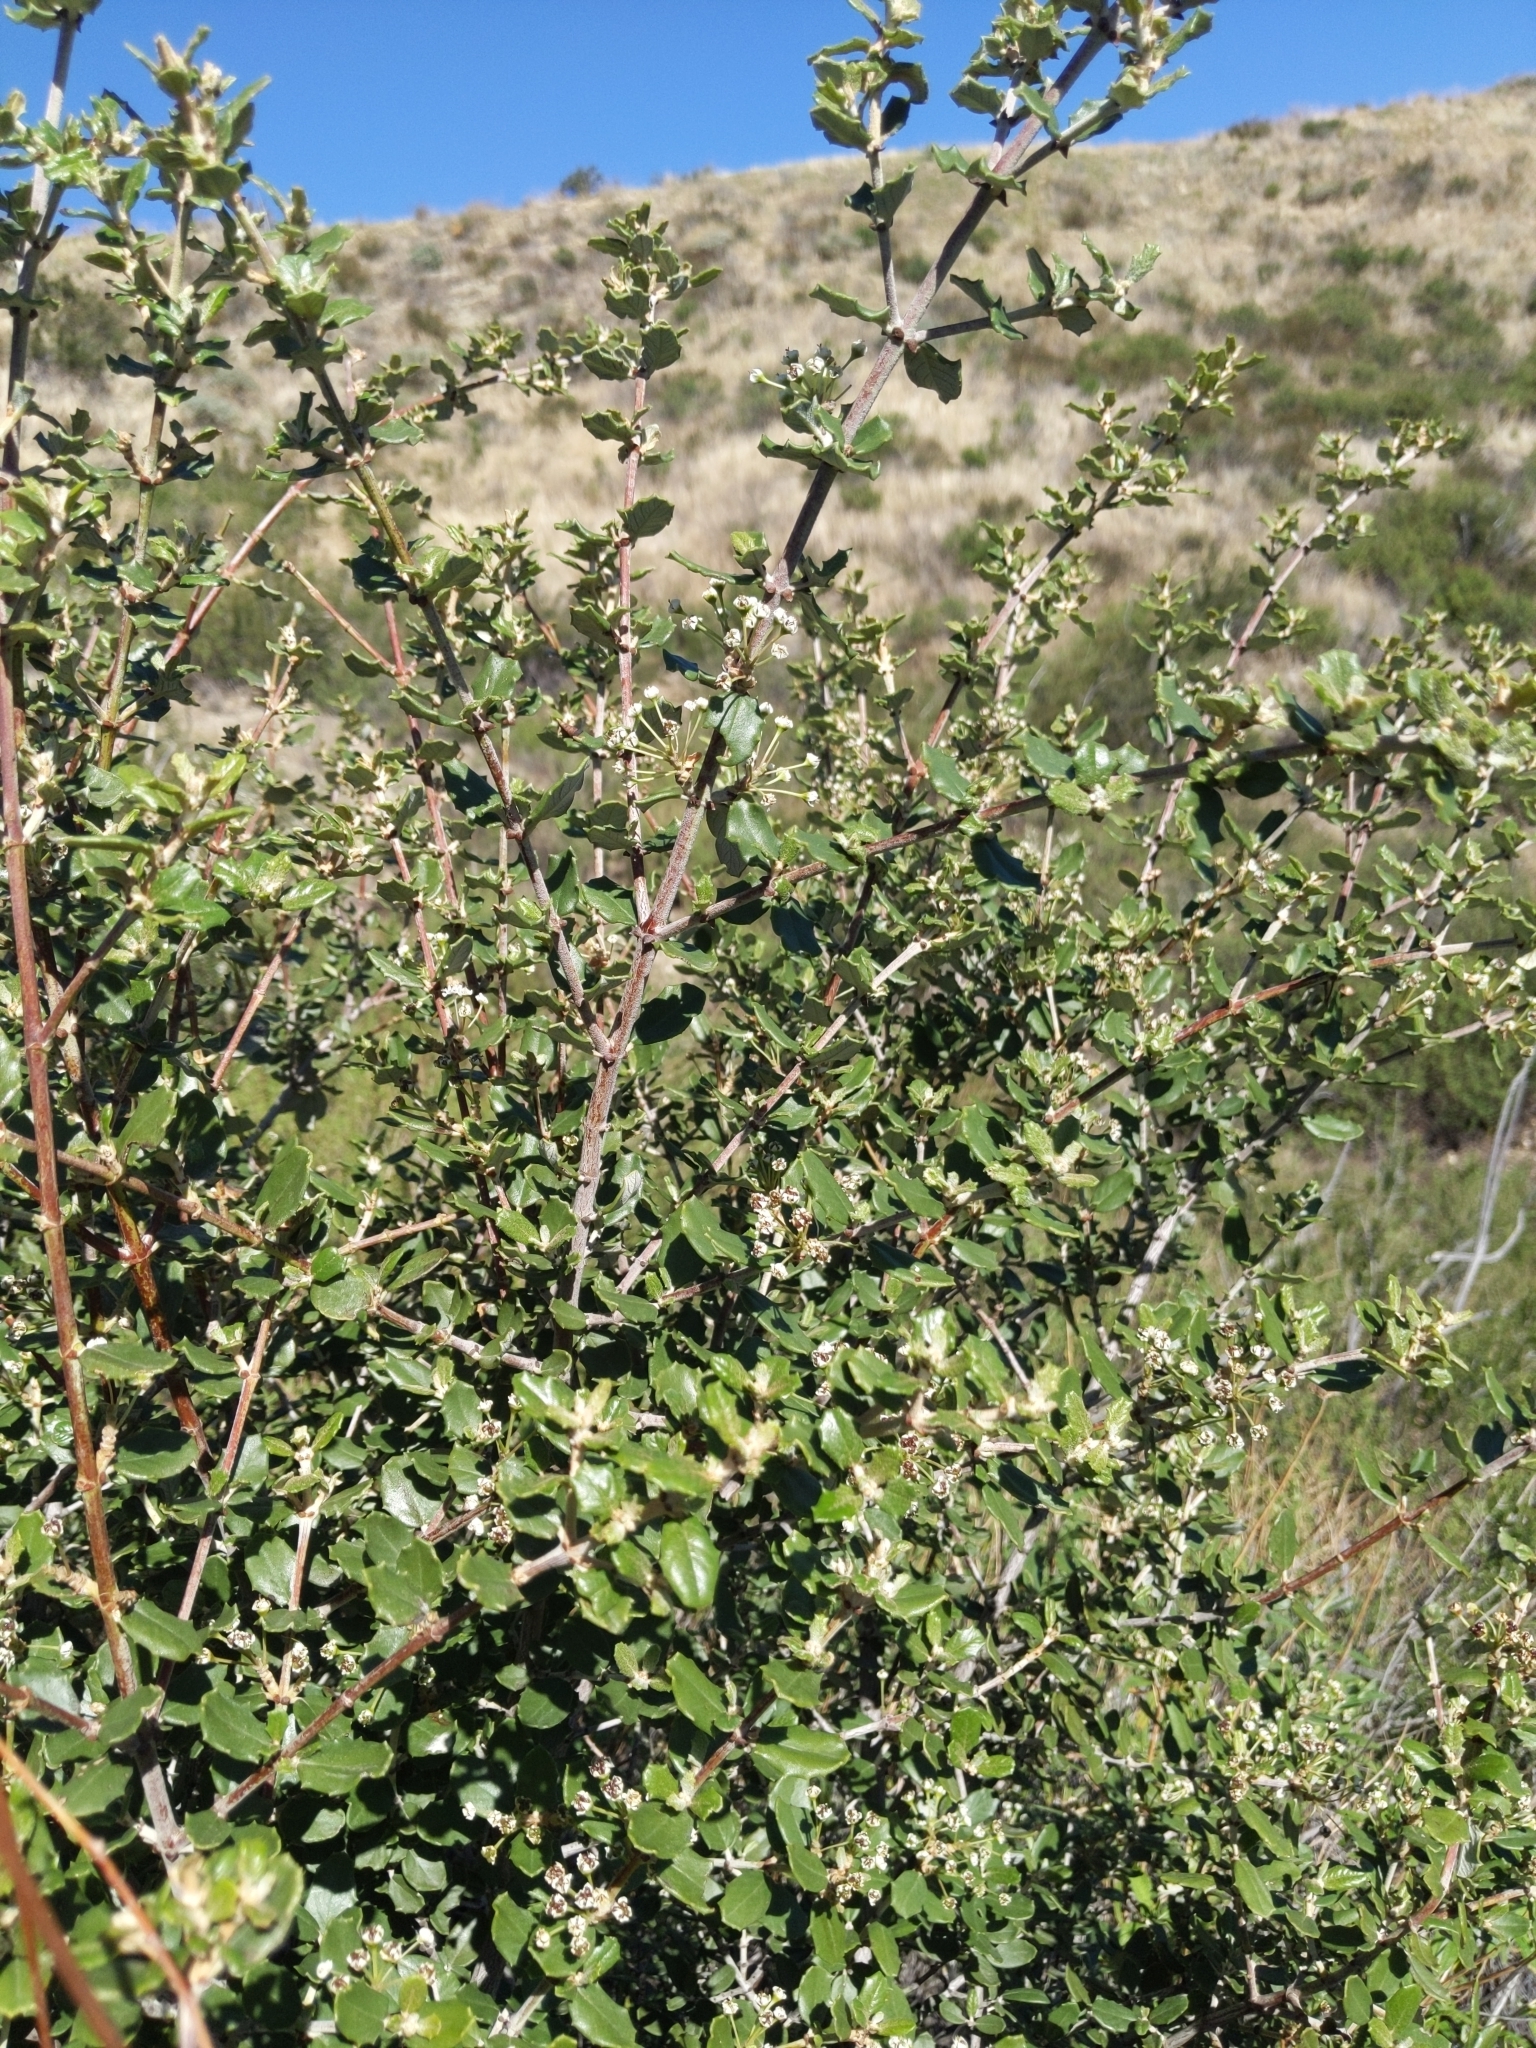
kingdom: Plantae
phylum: Tracheophyta
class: Magnoliopsida
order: Rosales
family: Rhamnaceae
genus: Ceanothus
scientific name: Ceanothus crassifolius
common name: Hoaryleaf ceanothus
